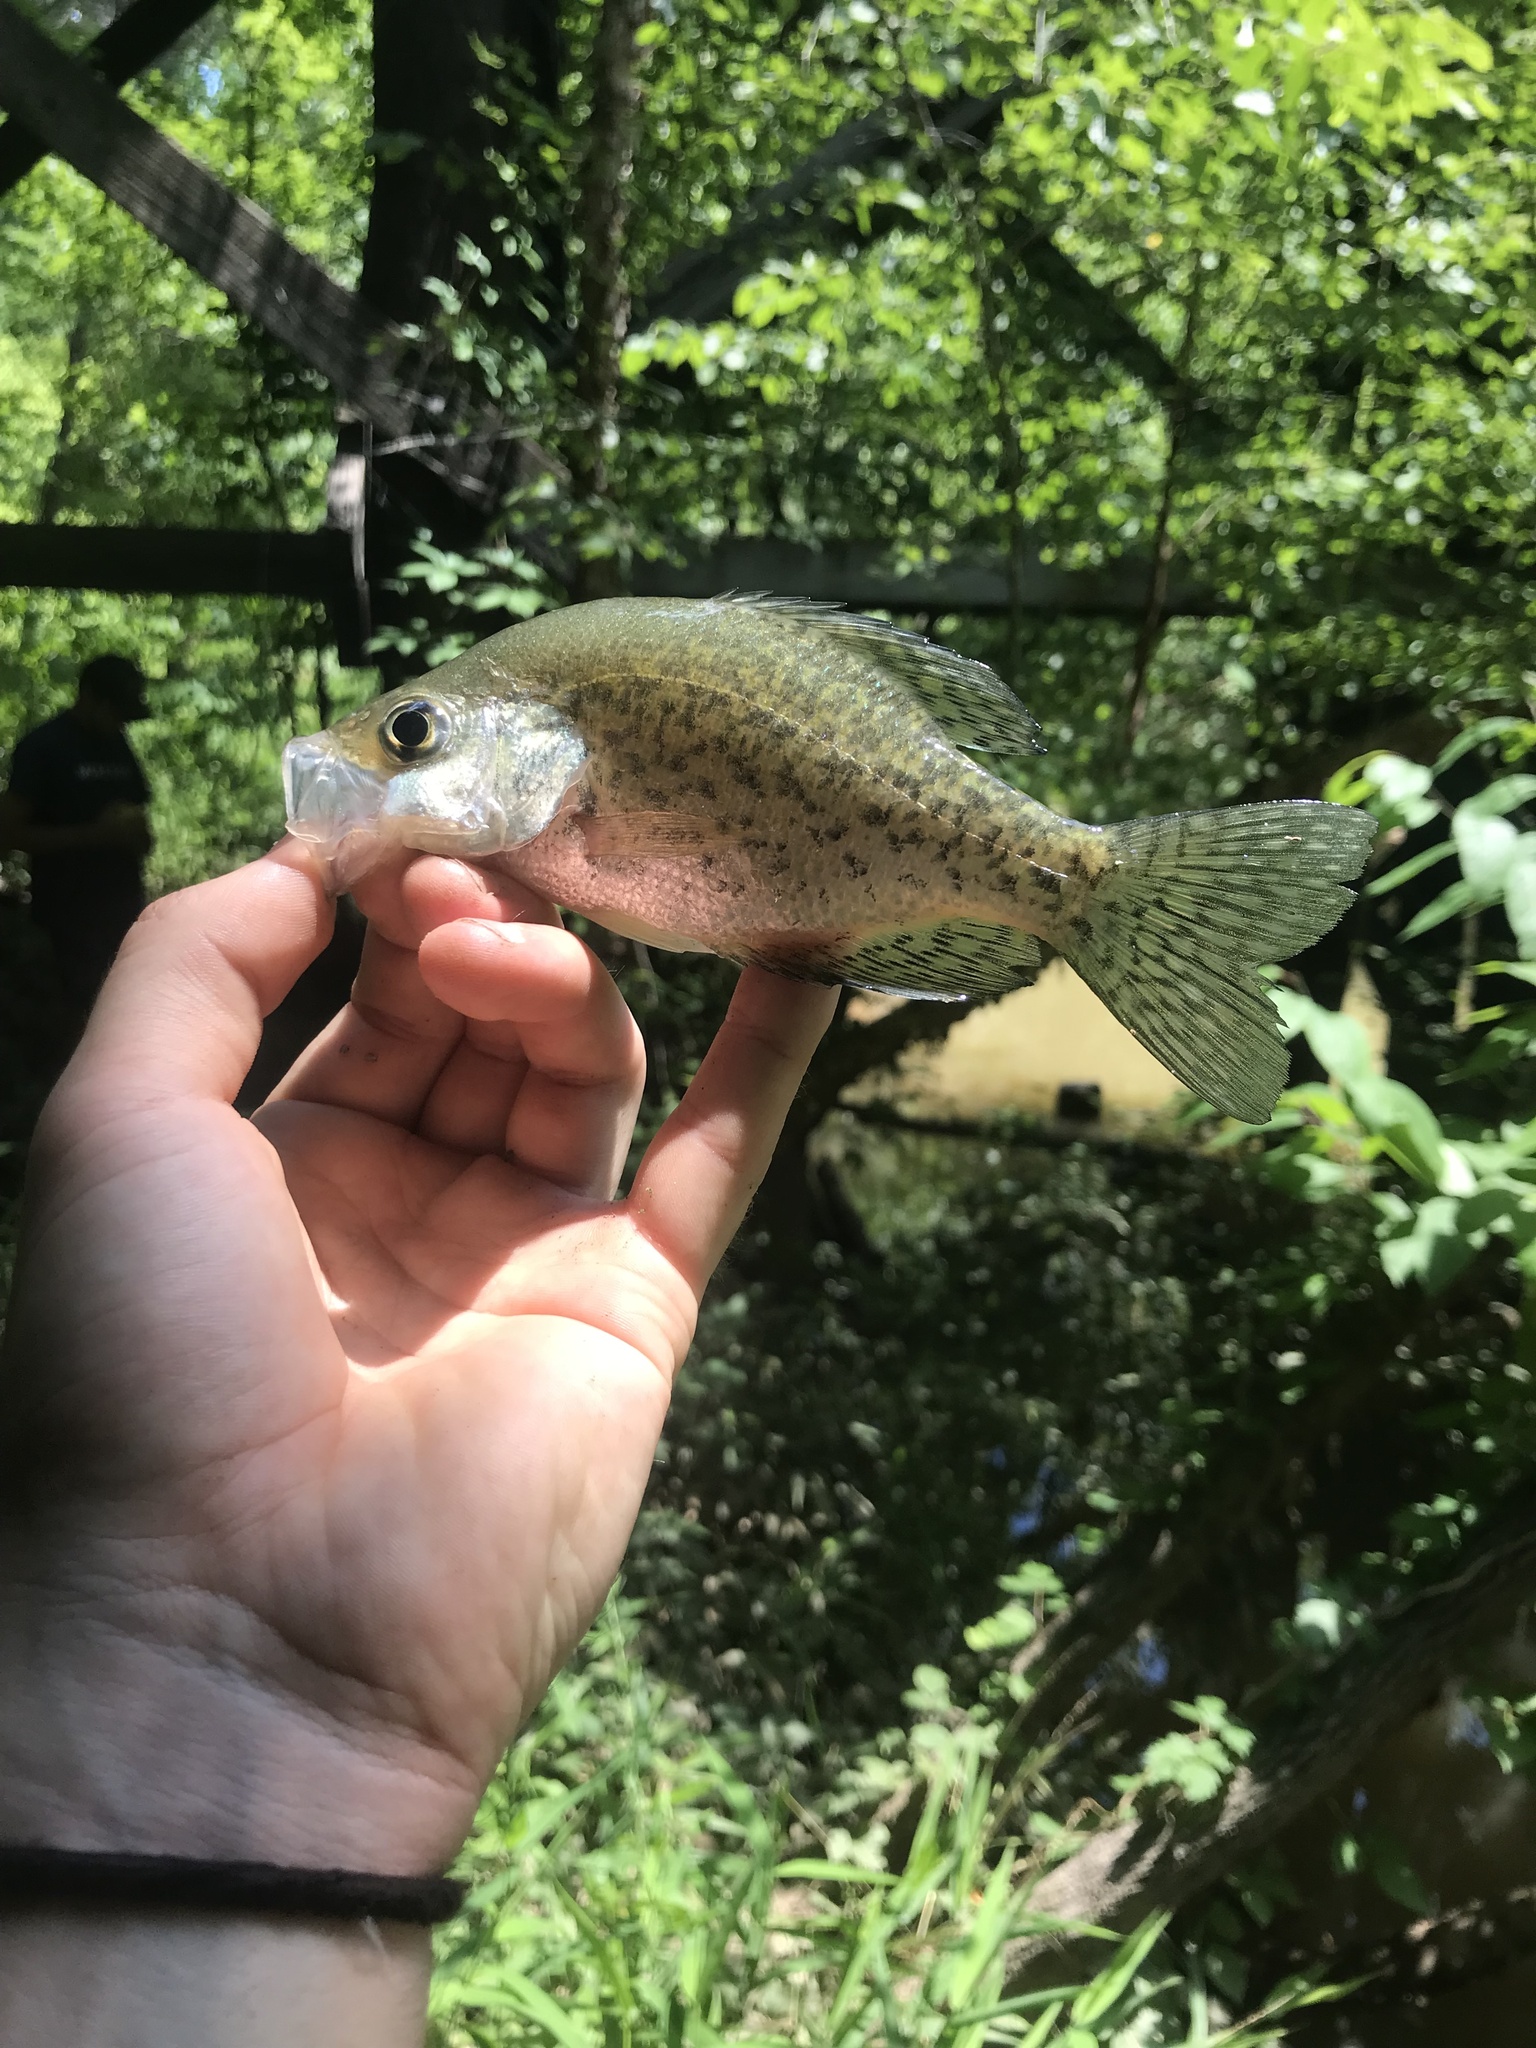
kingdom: Animalia
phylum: Chordata
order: Perciformes
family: Centrarchidae
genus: Pomoxis
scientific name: Pomoxis nigromaculatus
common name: Black crappie
